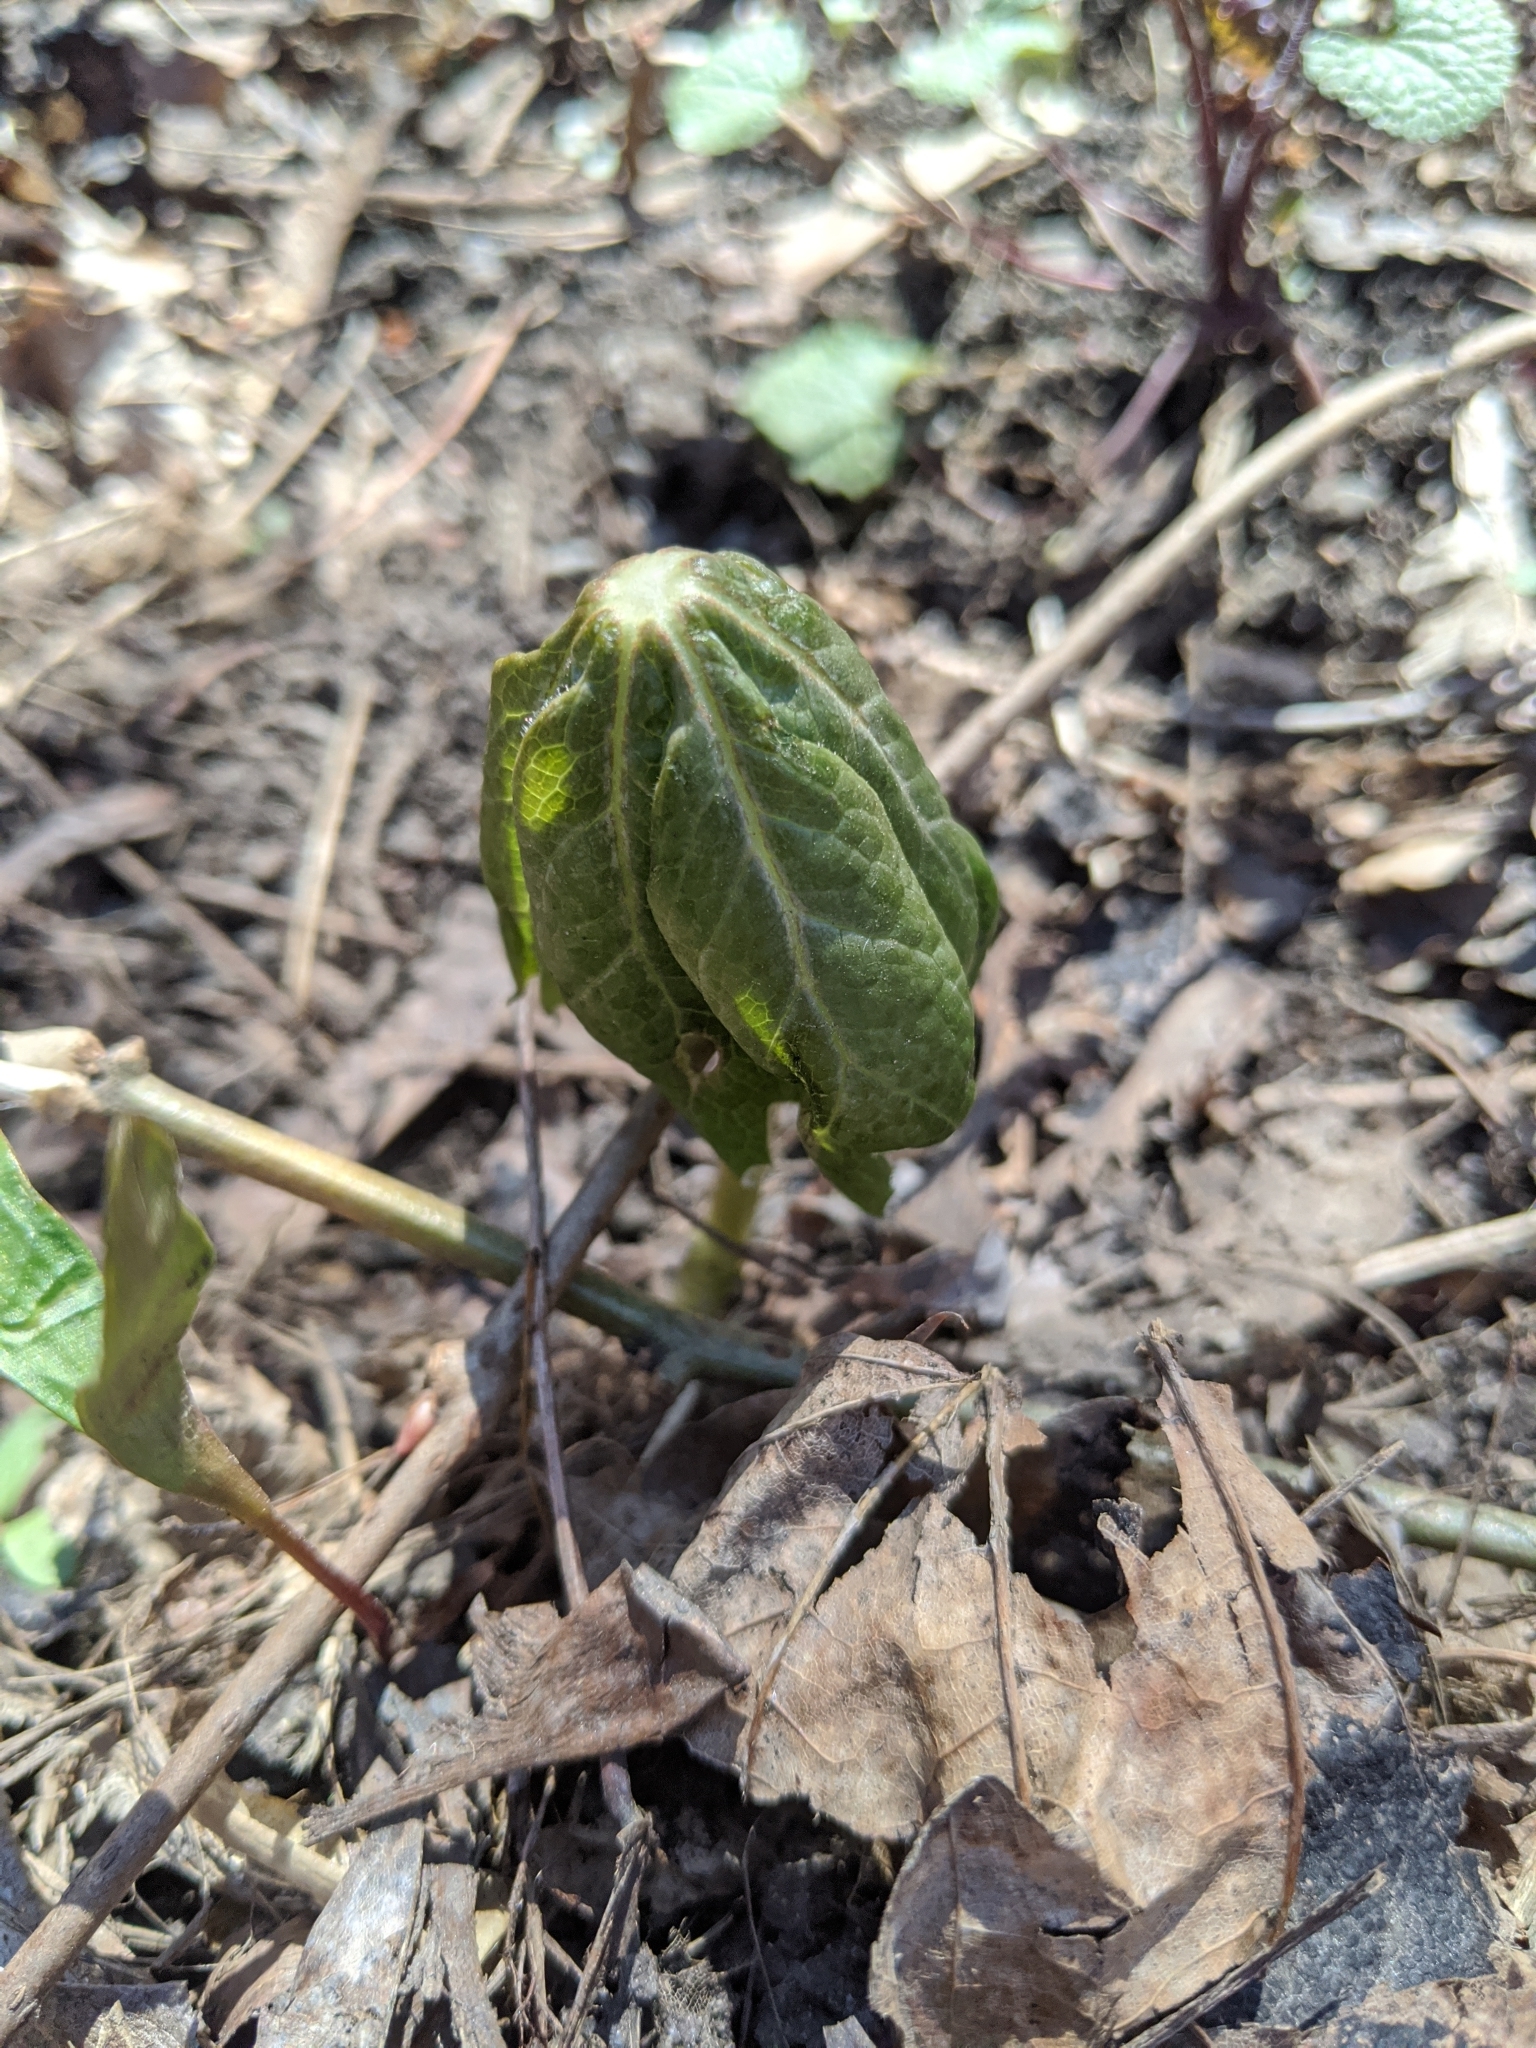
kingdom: Plantae
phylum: Tracheophyta
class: Magnoliopsida
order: Ranunculales
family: Berberidaceae
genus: Podophyllum
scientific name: Podophyllum peltatum
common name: Wild mandrake
